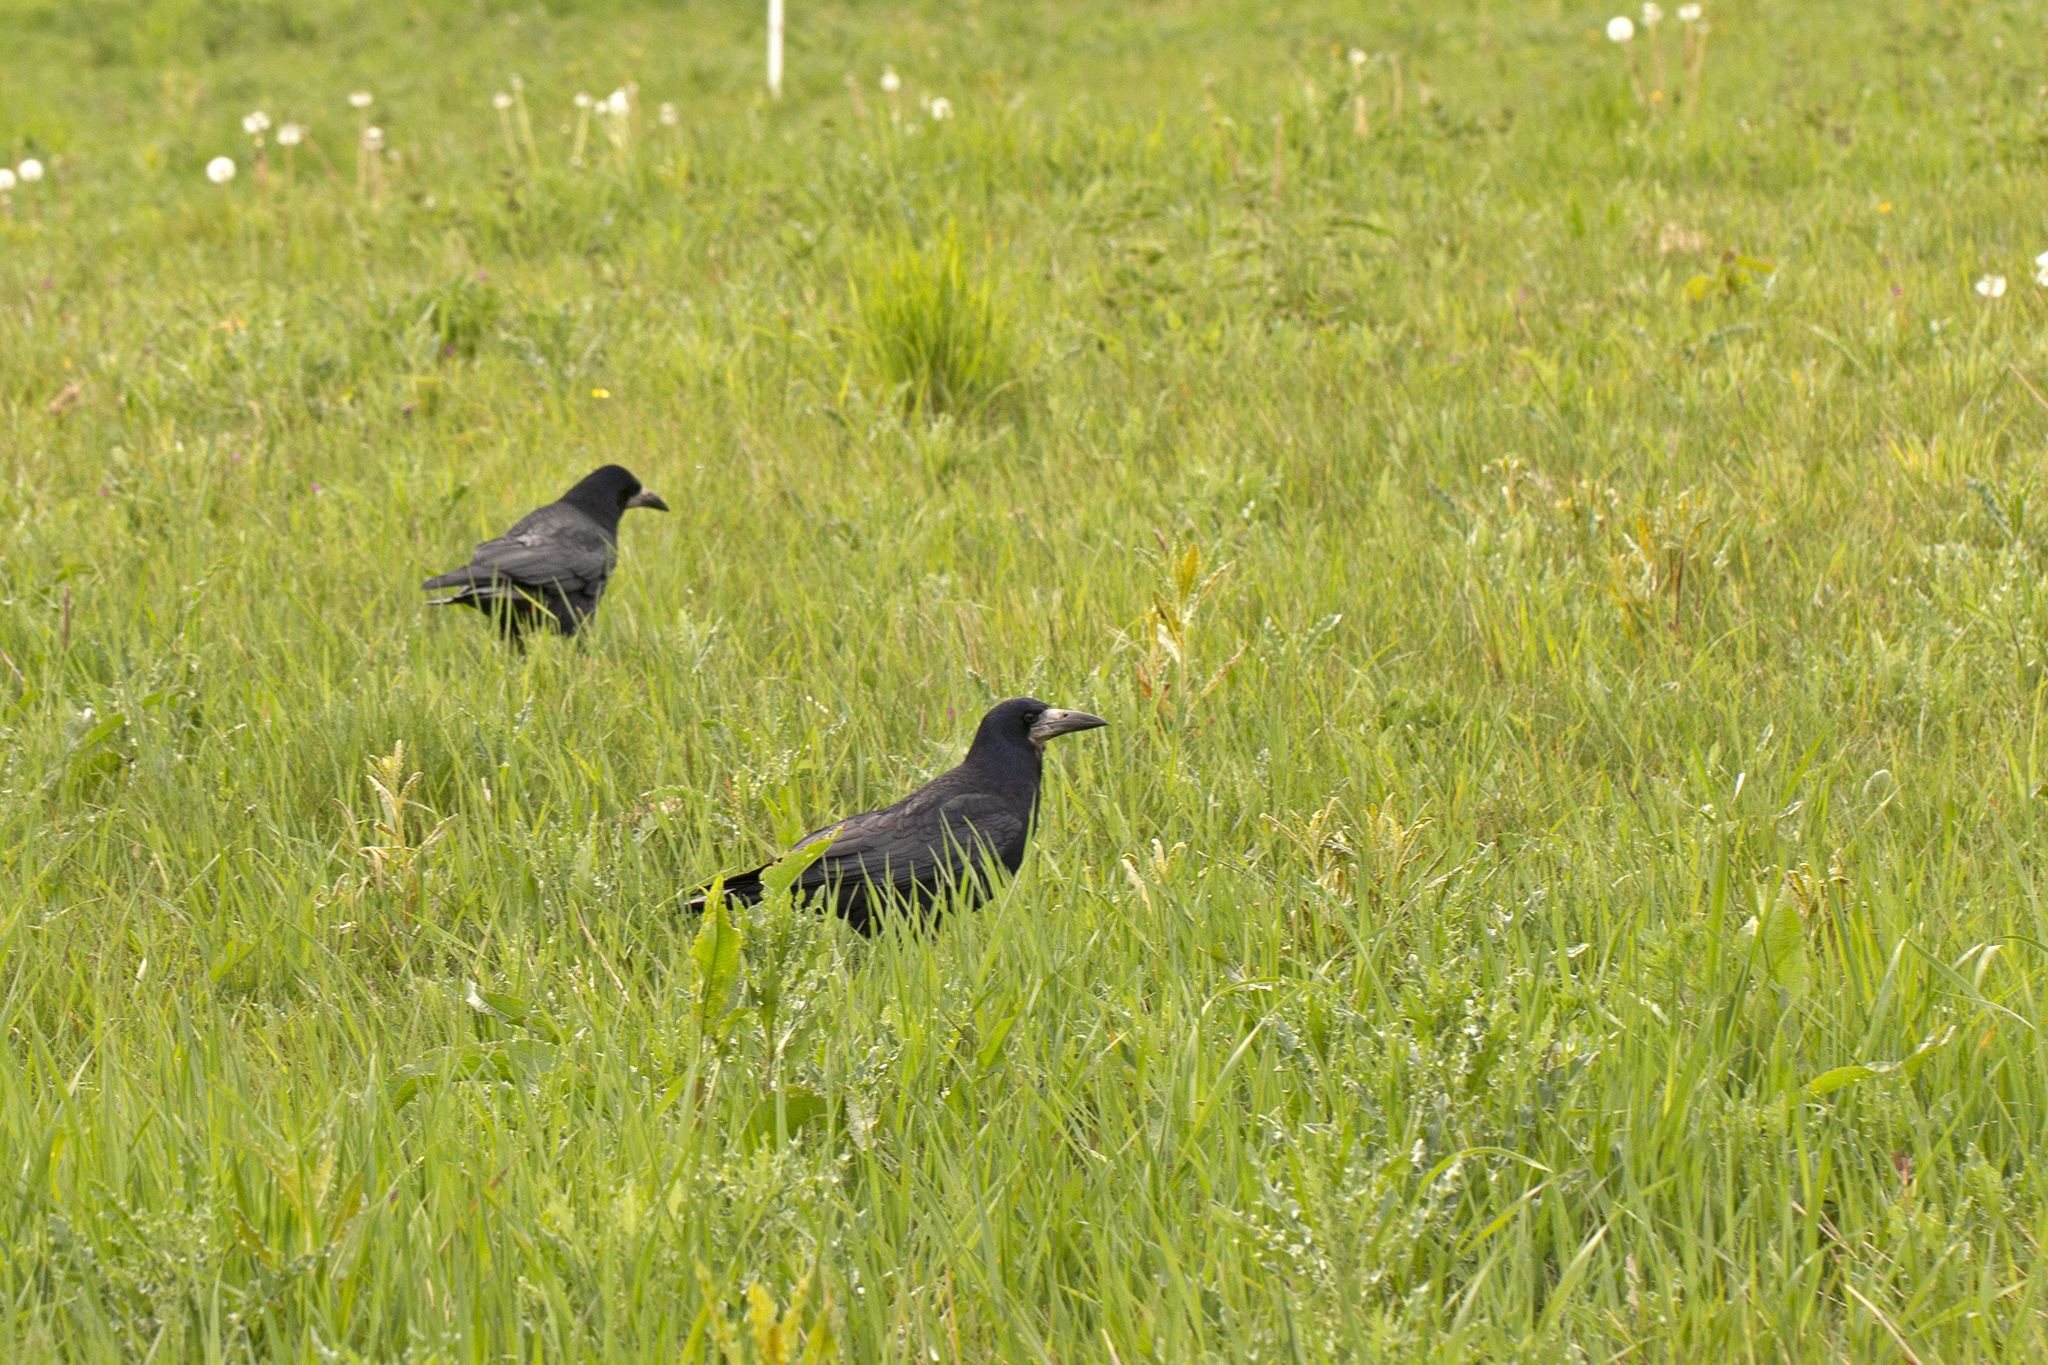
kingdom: Animalia
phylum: Chordata
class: Aves
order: Passeriformes
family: Corvidae
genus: Corvus
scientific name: Corvus frugilegus
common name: Rook
